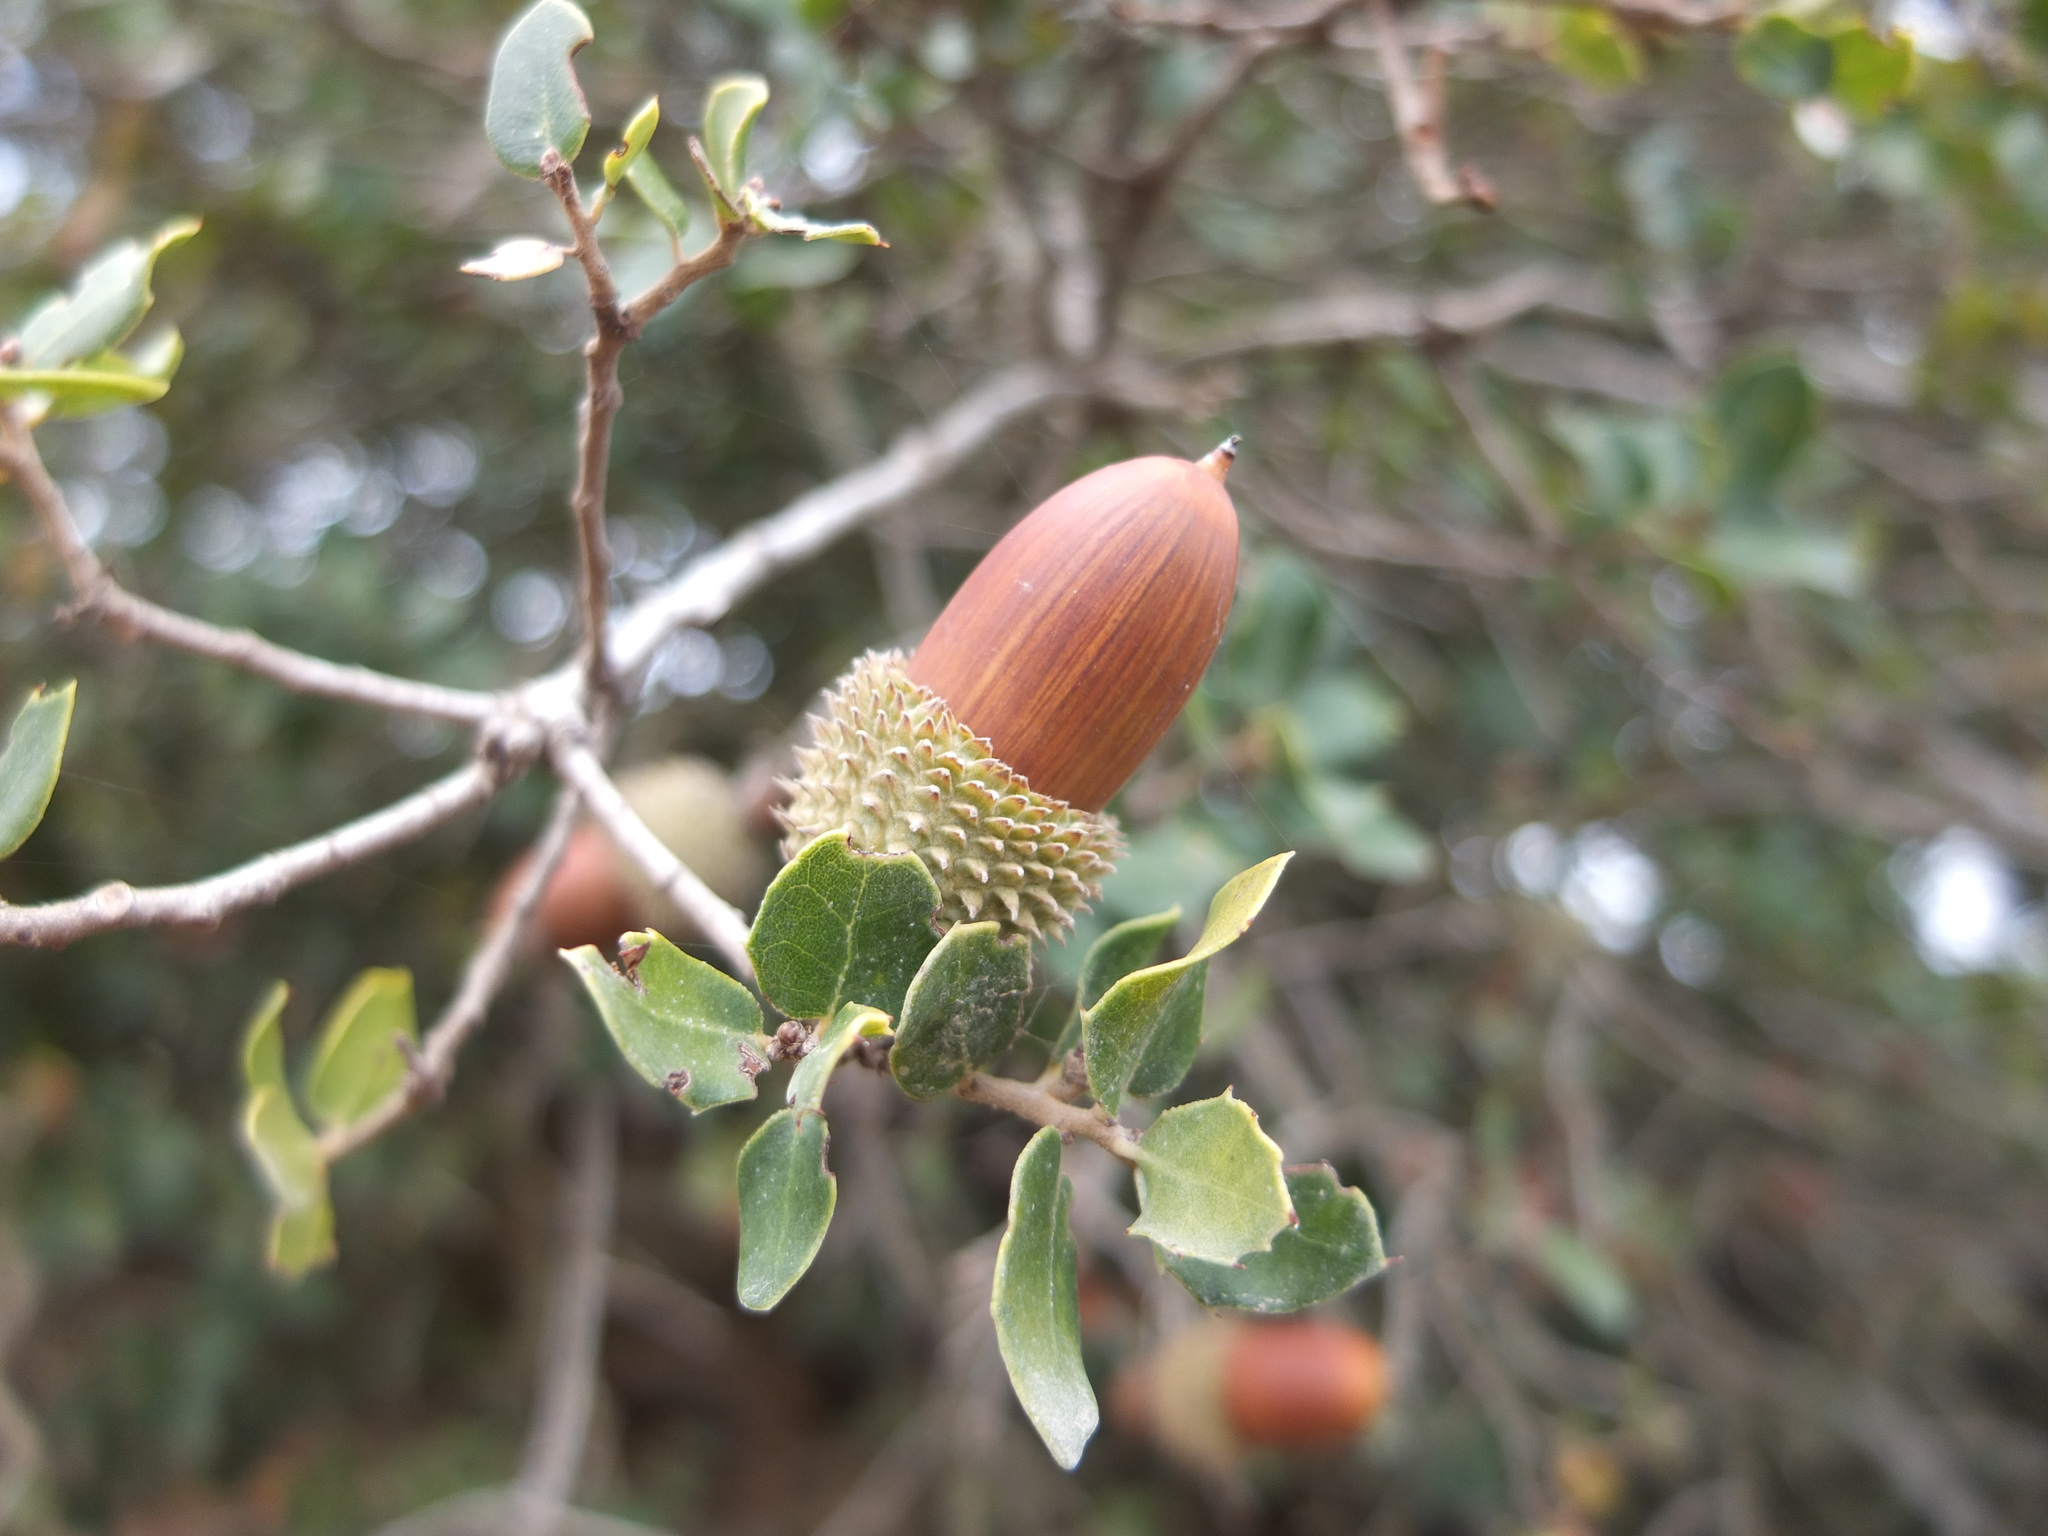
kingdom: Plantae
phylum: Tracheophyta
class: Magnoliopsida
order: Fagales
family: Fagaceae
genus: Quercus
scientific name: Quercus coccifera
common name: Kermes oak
